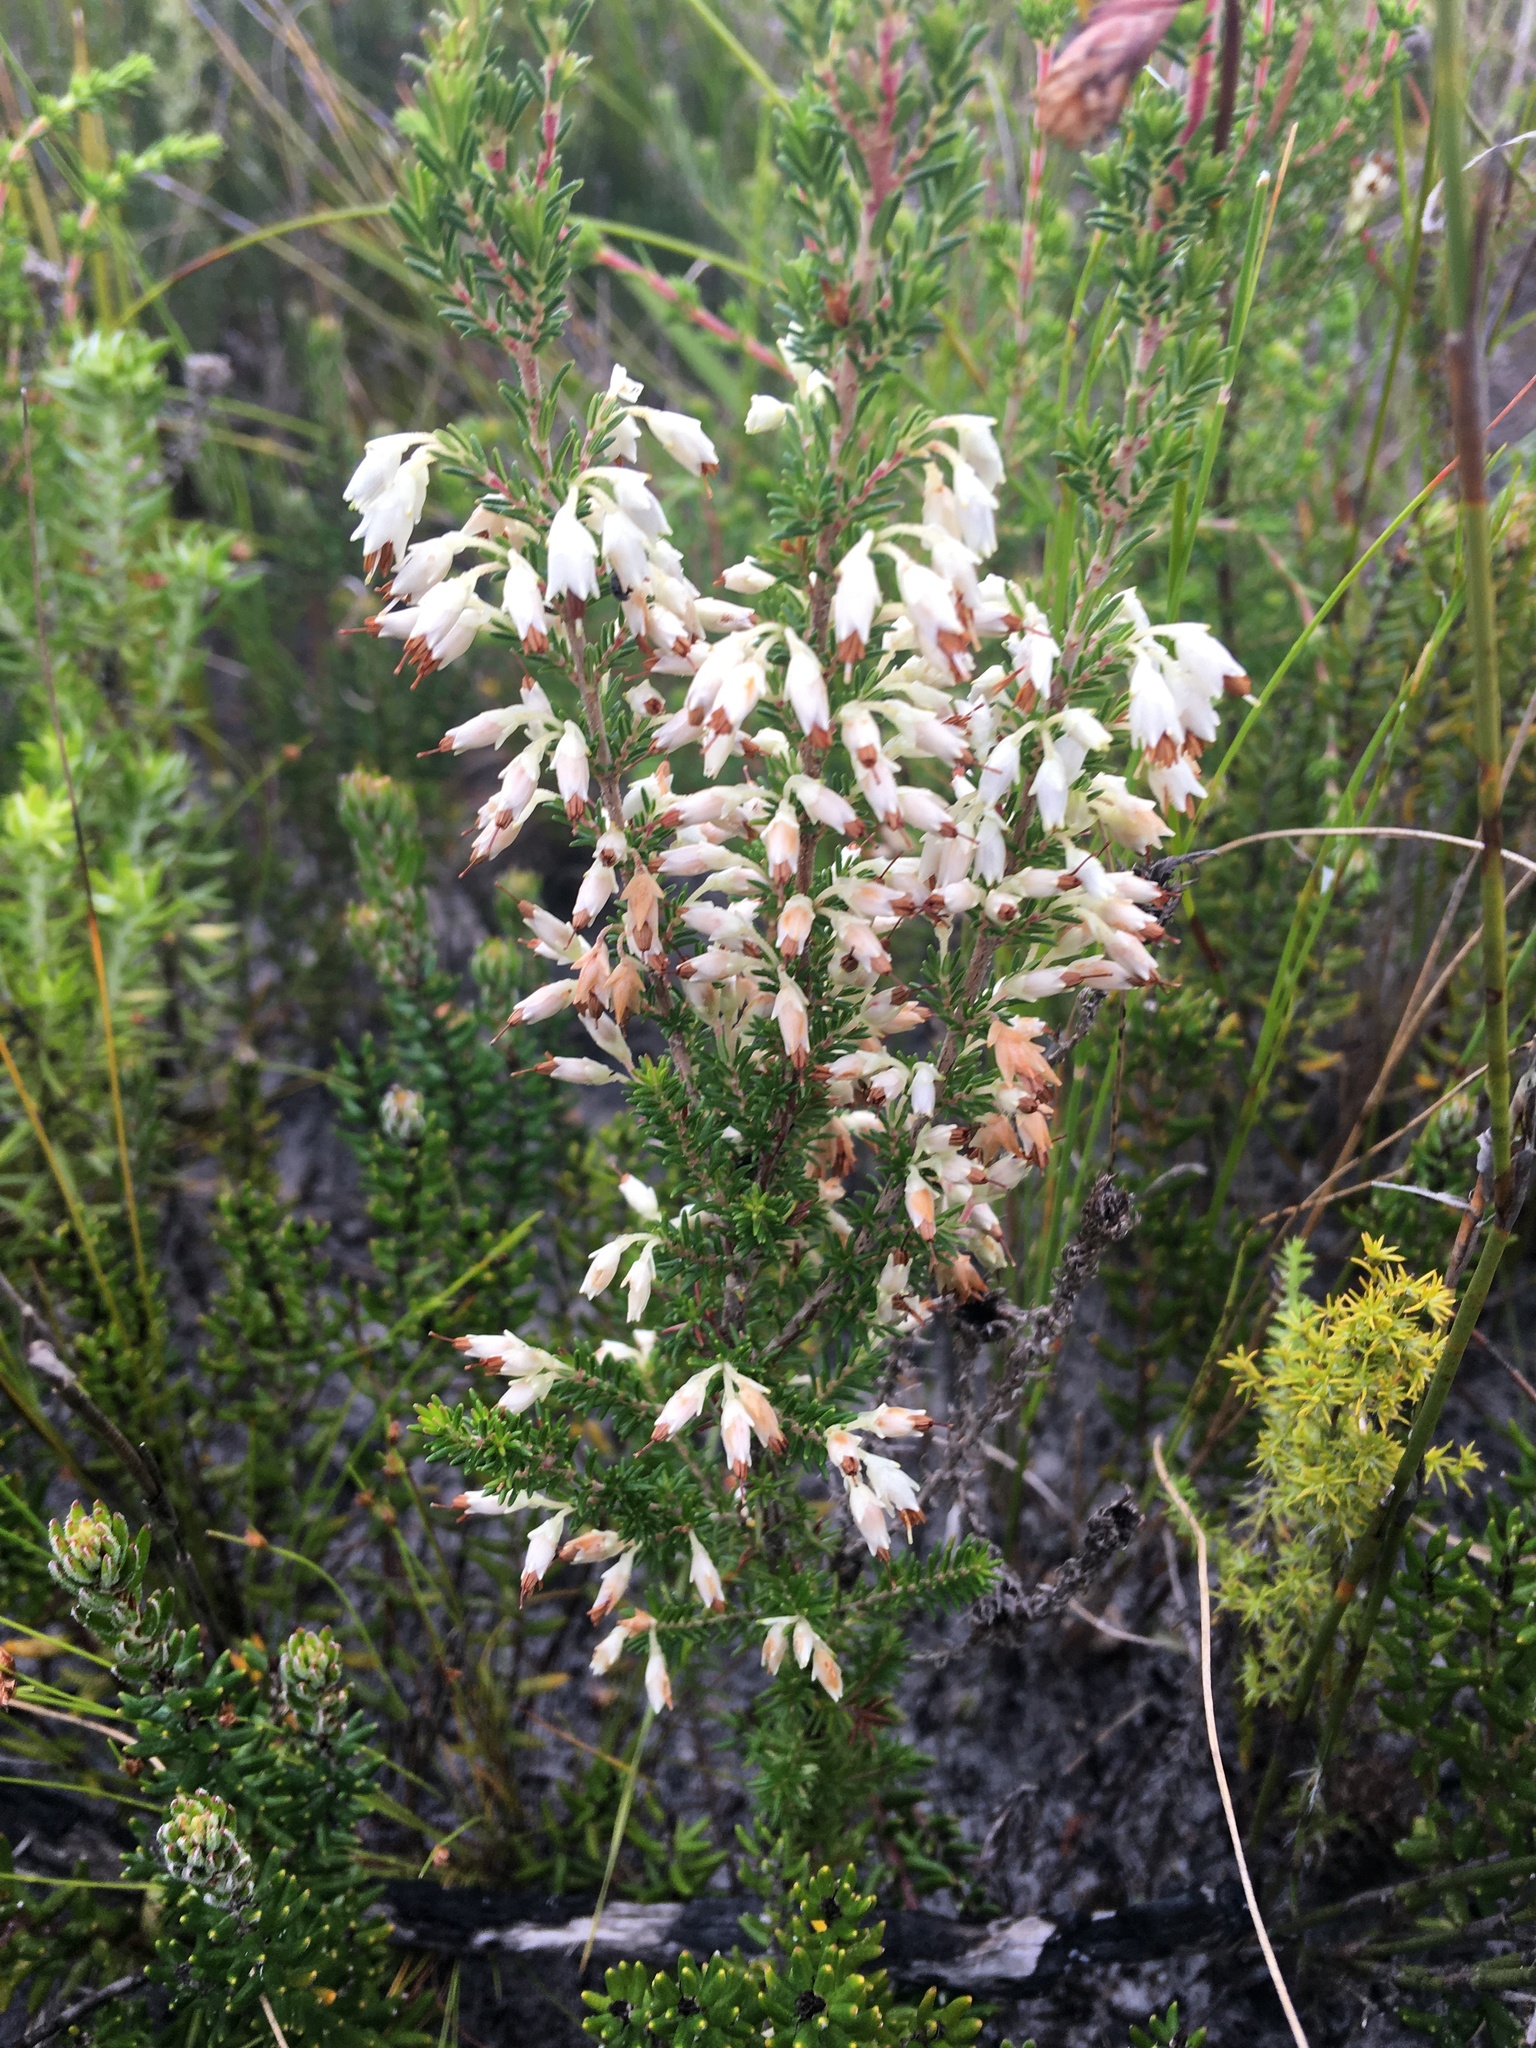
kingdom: Plantae
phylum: Tracheophyta
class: Magnoliopsida
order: Ericales
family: Ericaceae
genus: Erica
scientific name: Erica imbricata
